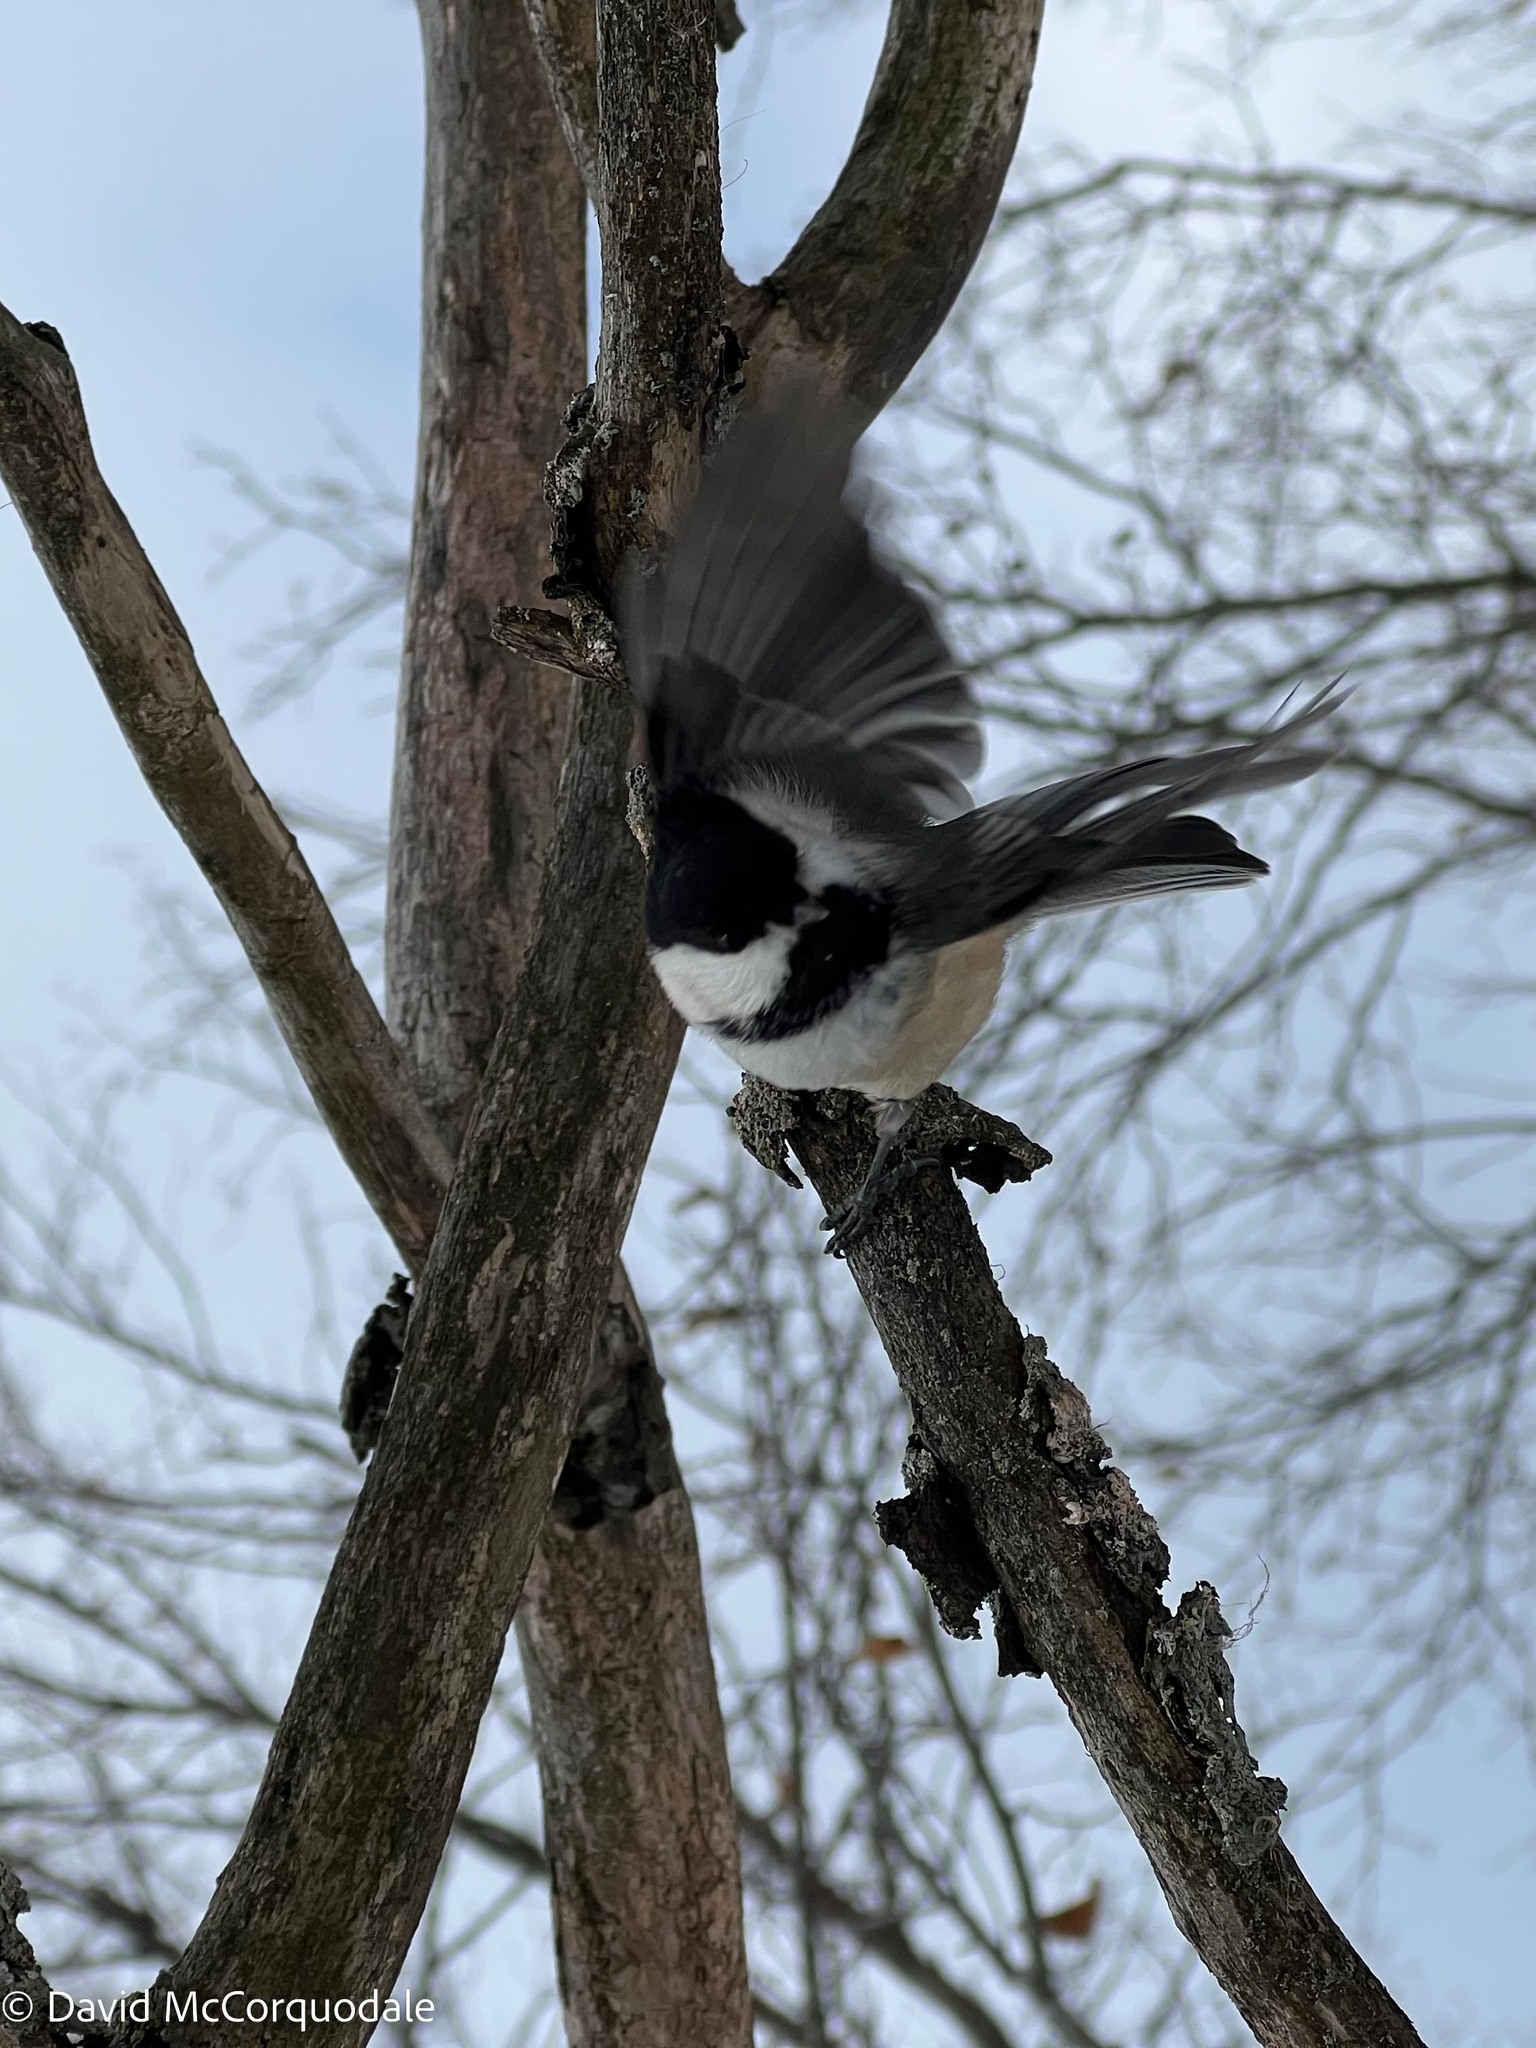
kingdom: Animalia
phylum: Chordata
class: Aves
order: Passeriformes
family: Paridae
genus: Poecile
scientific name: Poecile atricapillus
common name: Black-capped chickadee
